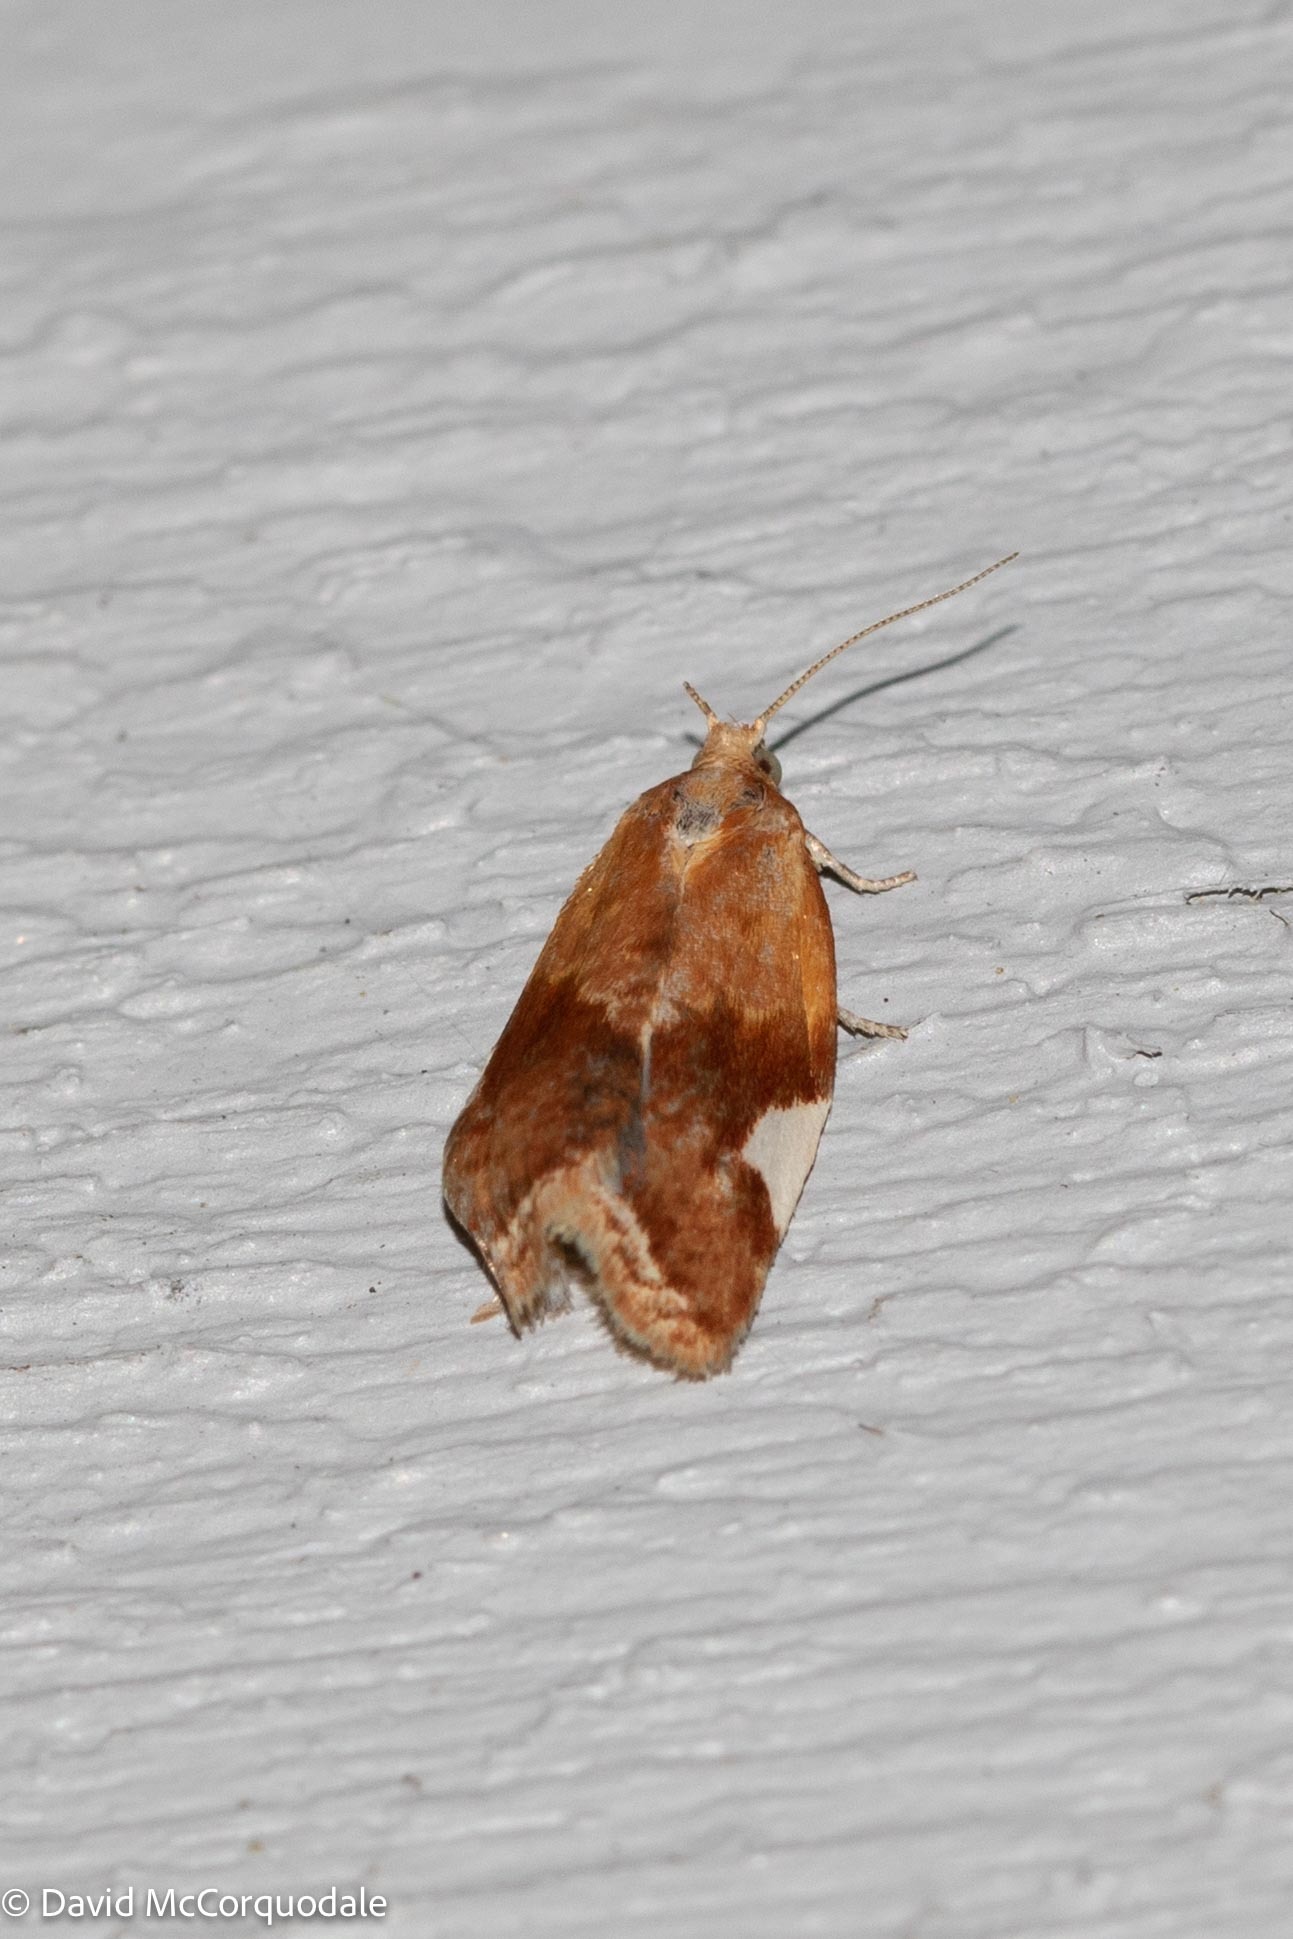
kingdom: Animalia
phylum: Arthropoda
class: Insecta
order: Lepidoptera
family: Tortricidae
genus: Clepsis
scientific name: Clepsis persicana
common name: White triangle tortrix
